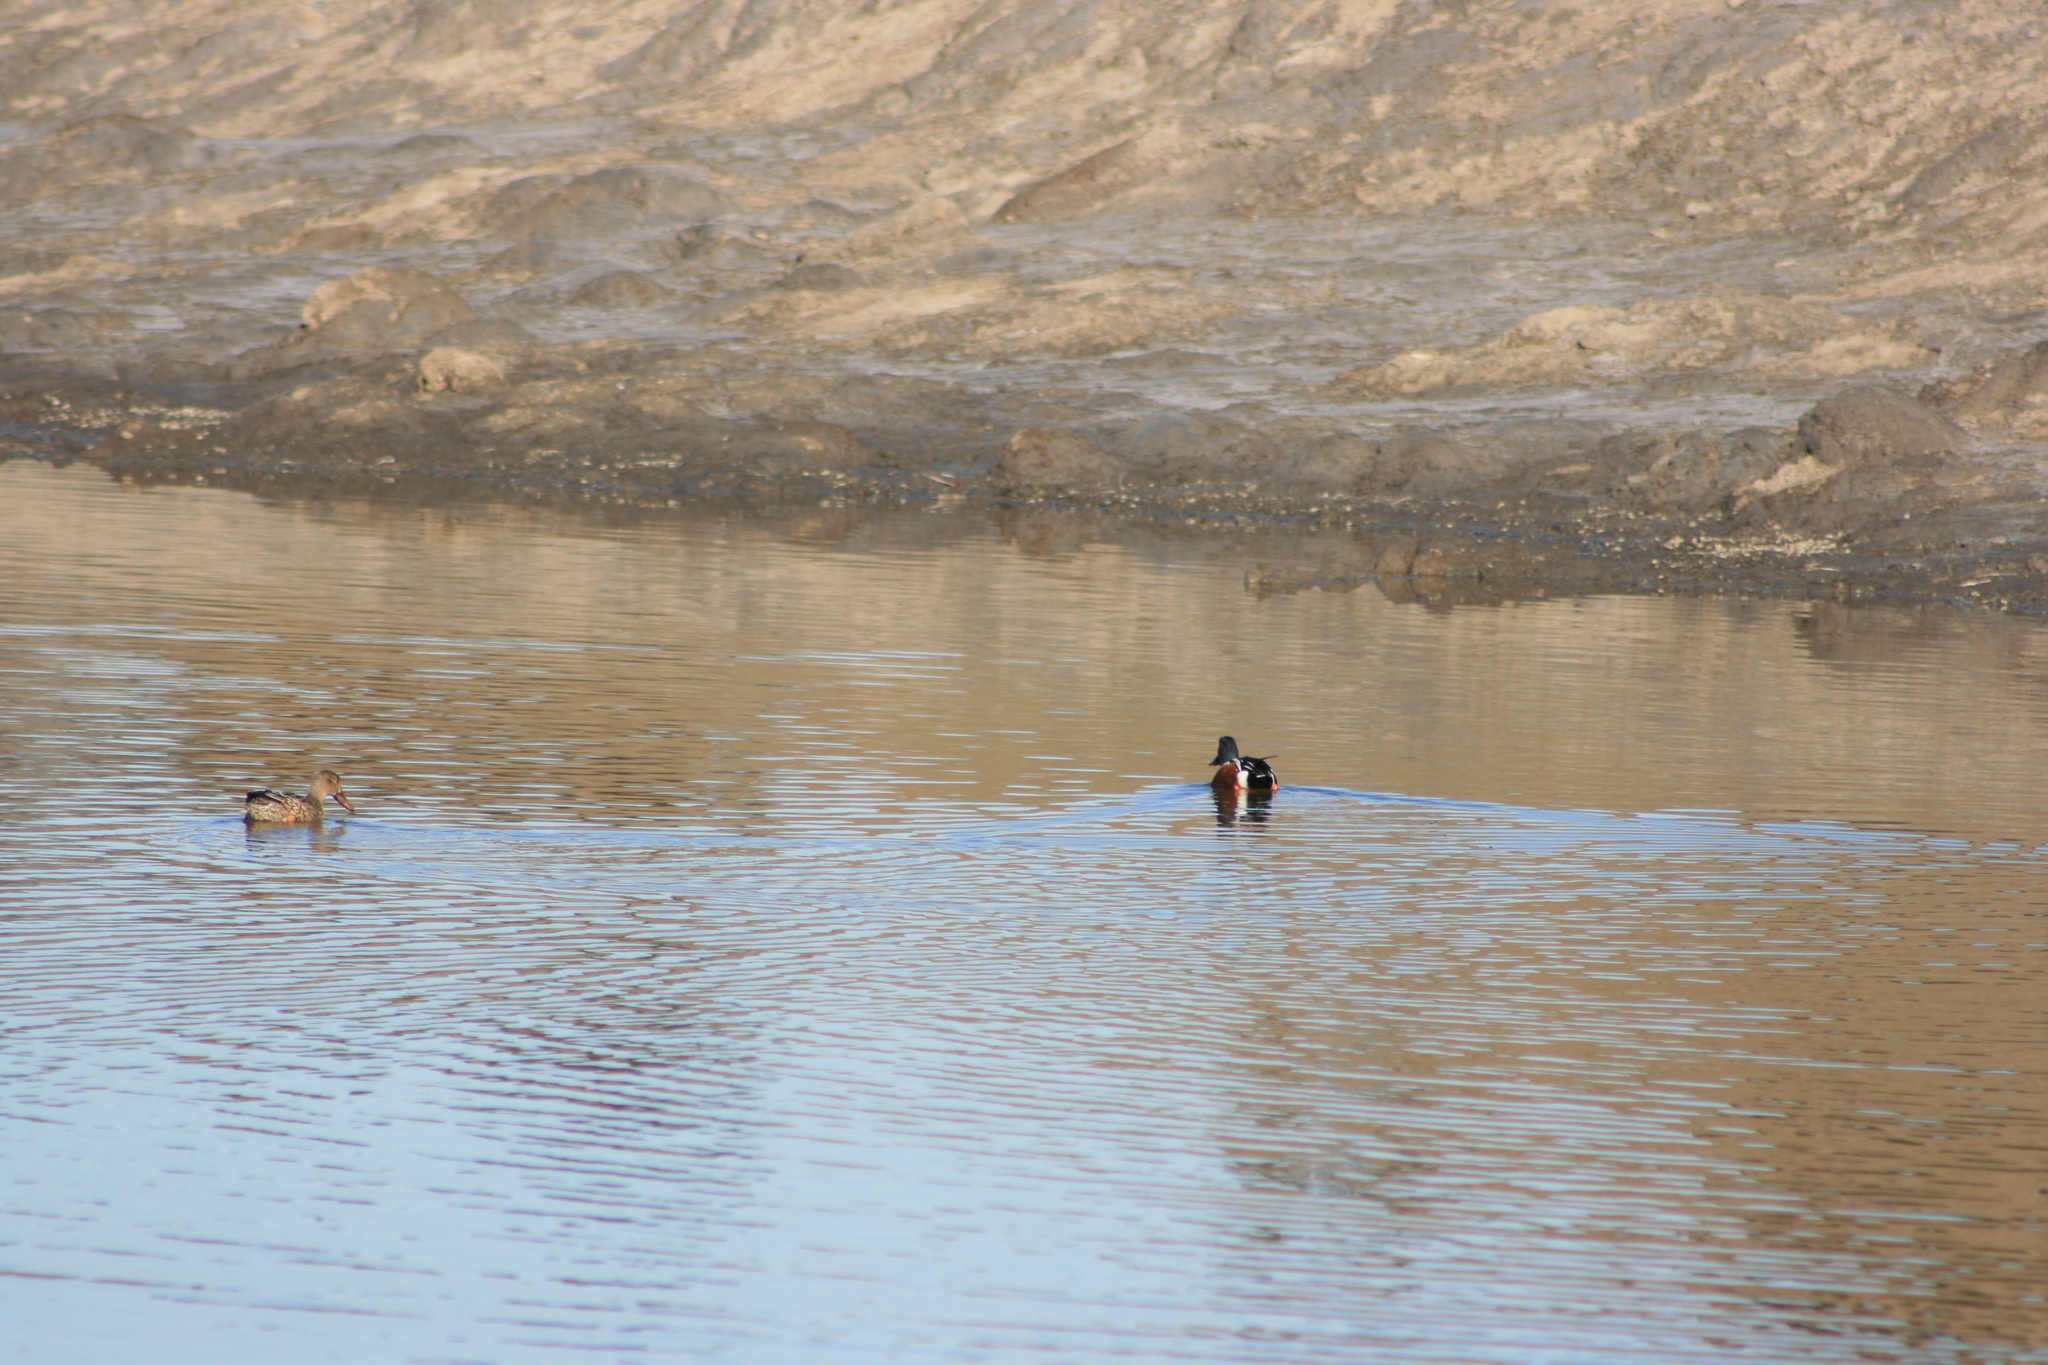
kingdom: Animalia
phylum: Chordata
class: Aves
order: Anseriformes
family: Anatidae
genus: Spatula
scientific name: Spatula clypeata
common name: Northern shoveler
